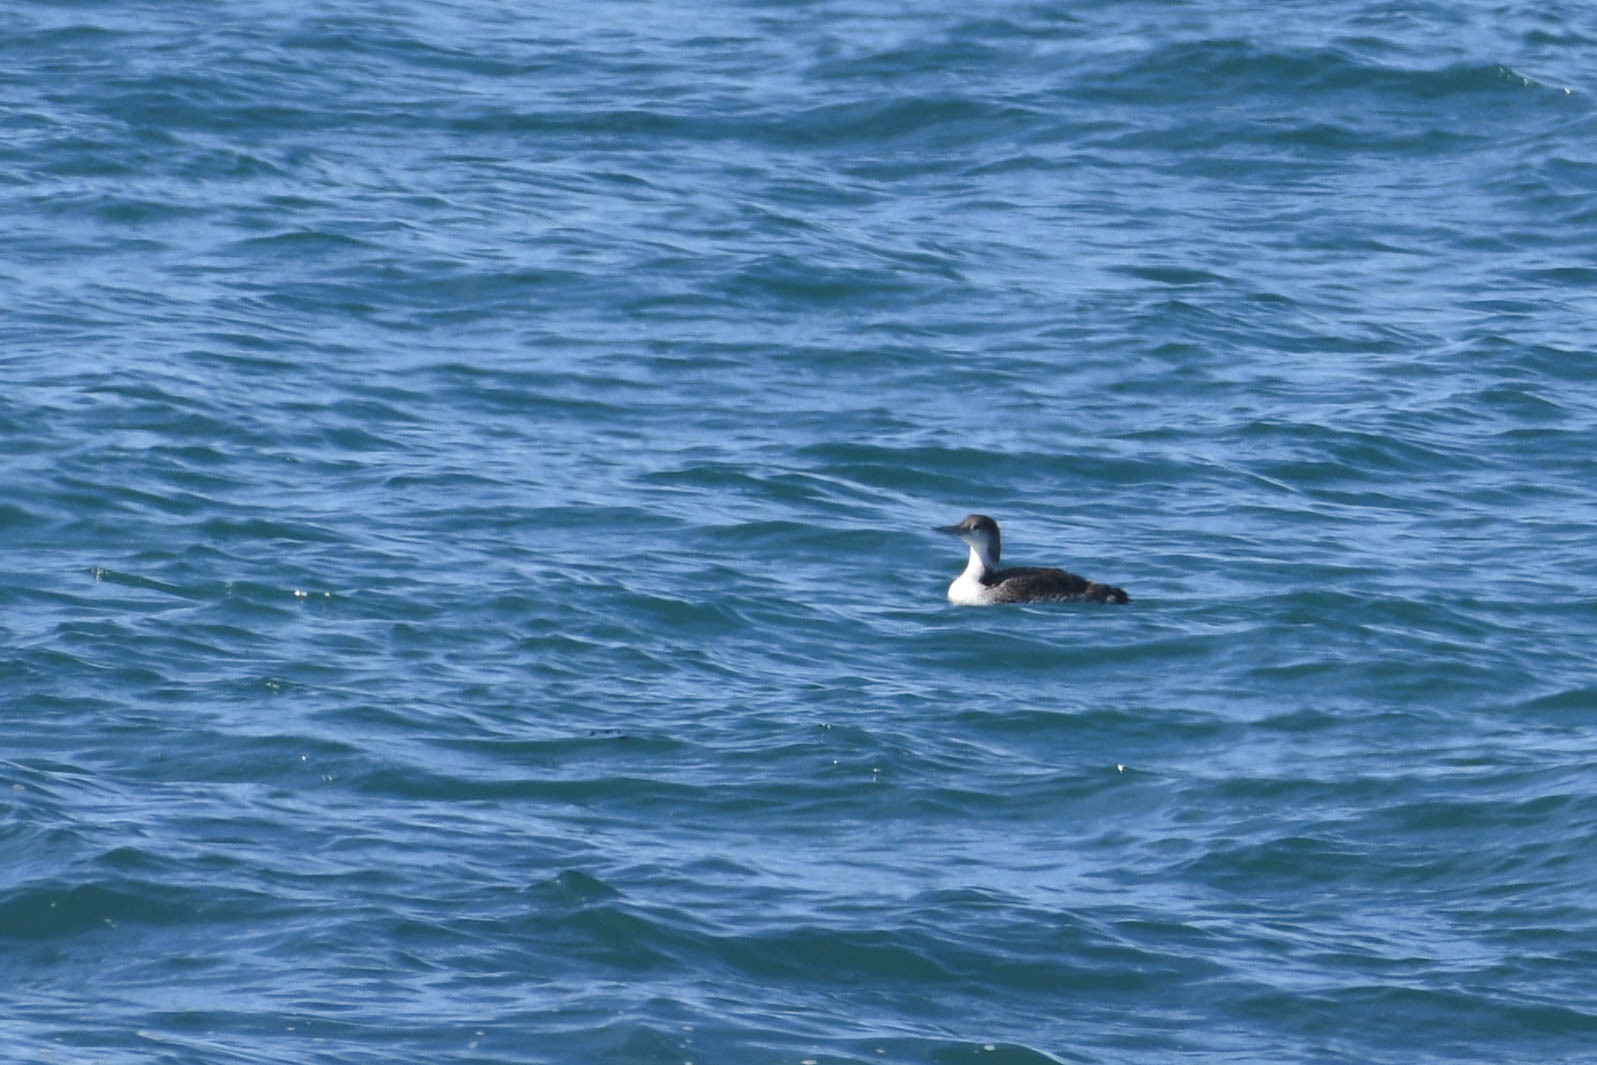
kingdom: Animalia
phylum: Chordata
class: Aves
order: Gaviiformes
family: Gaviidae
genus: Gavia
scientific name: Gavia immer
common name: Common loon
